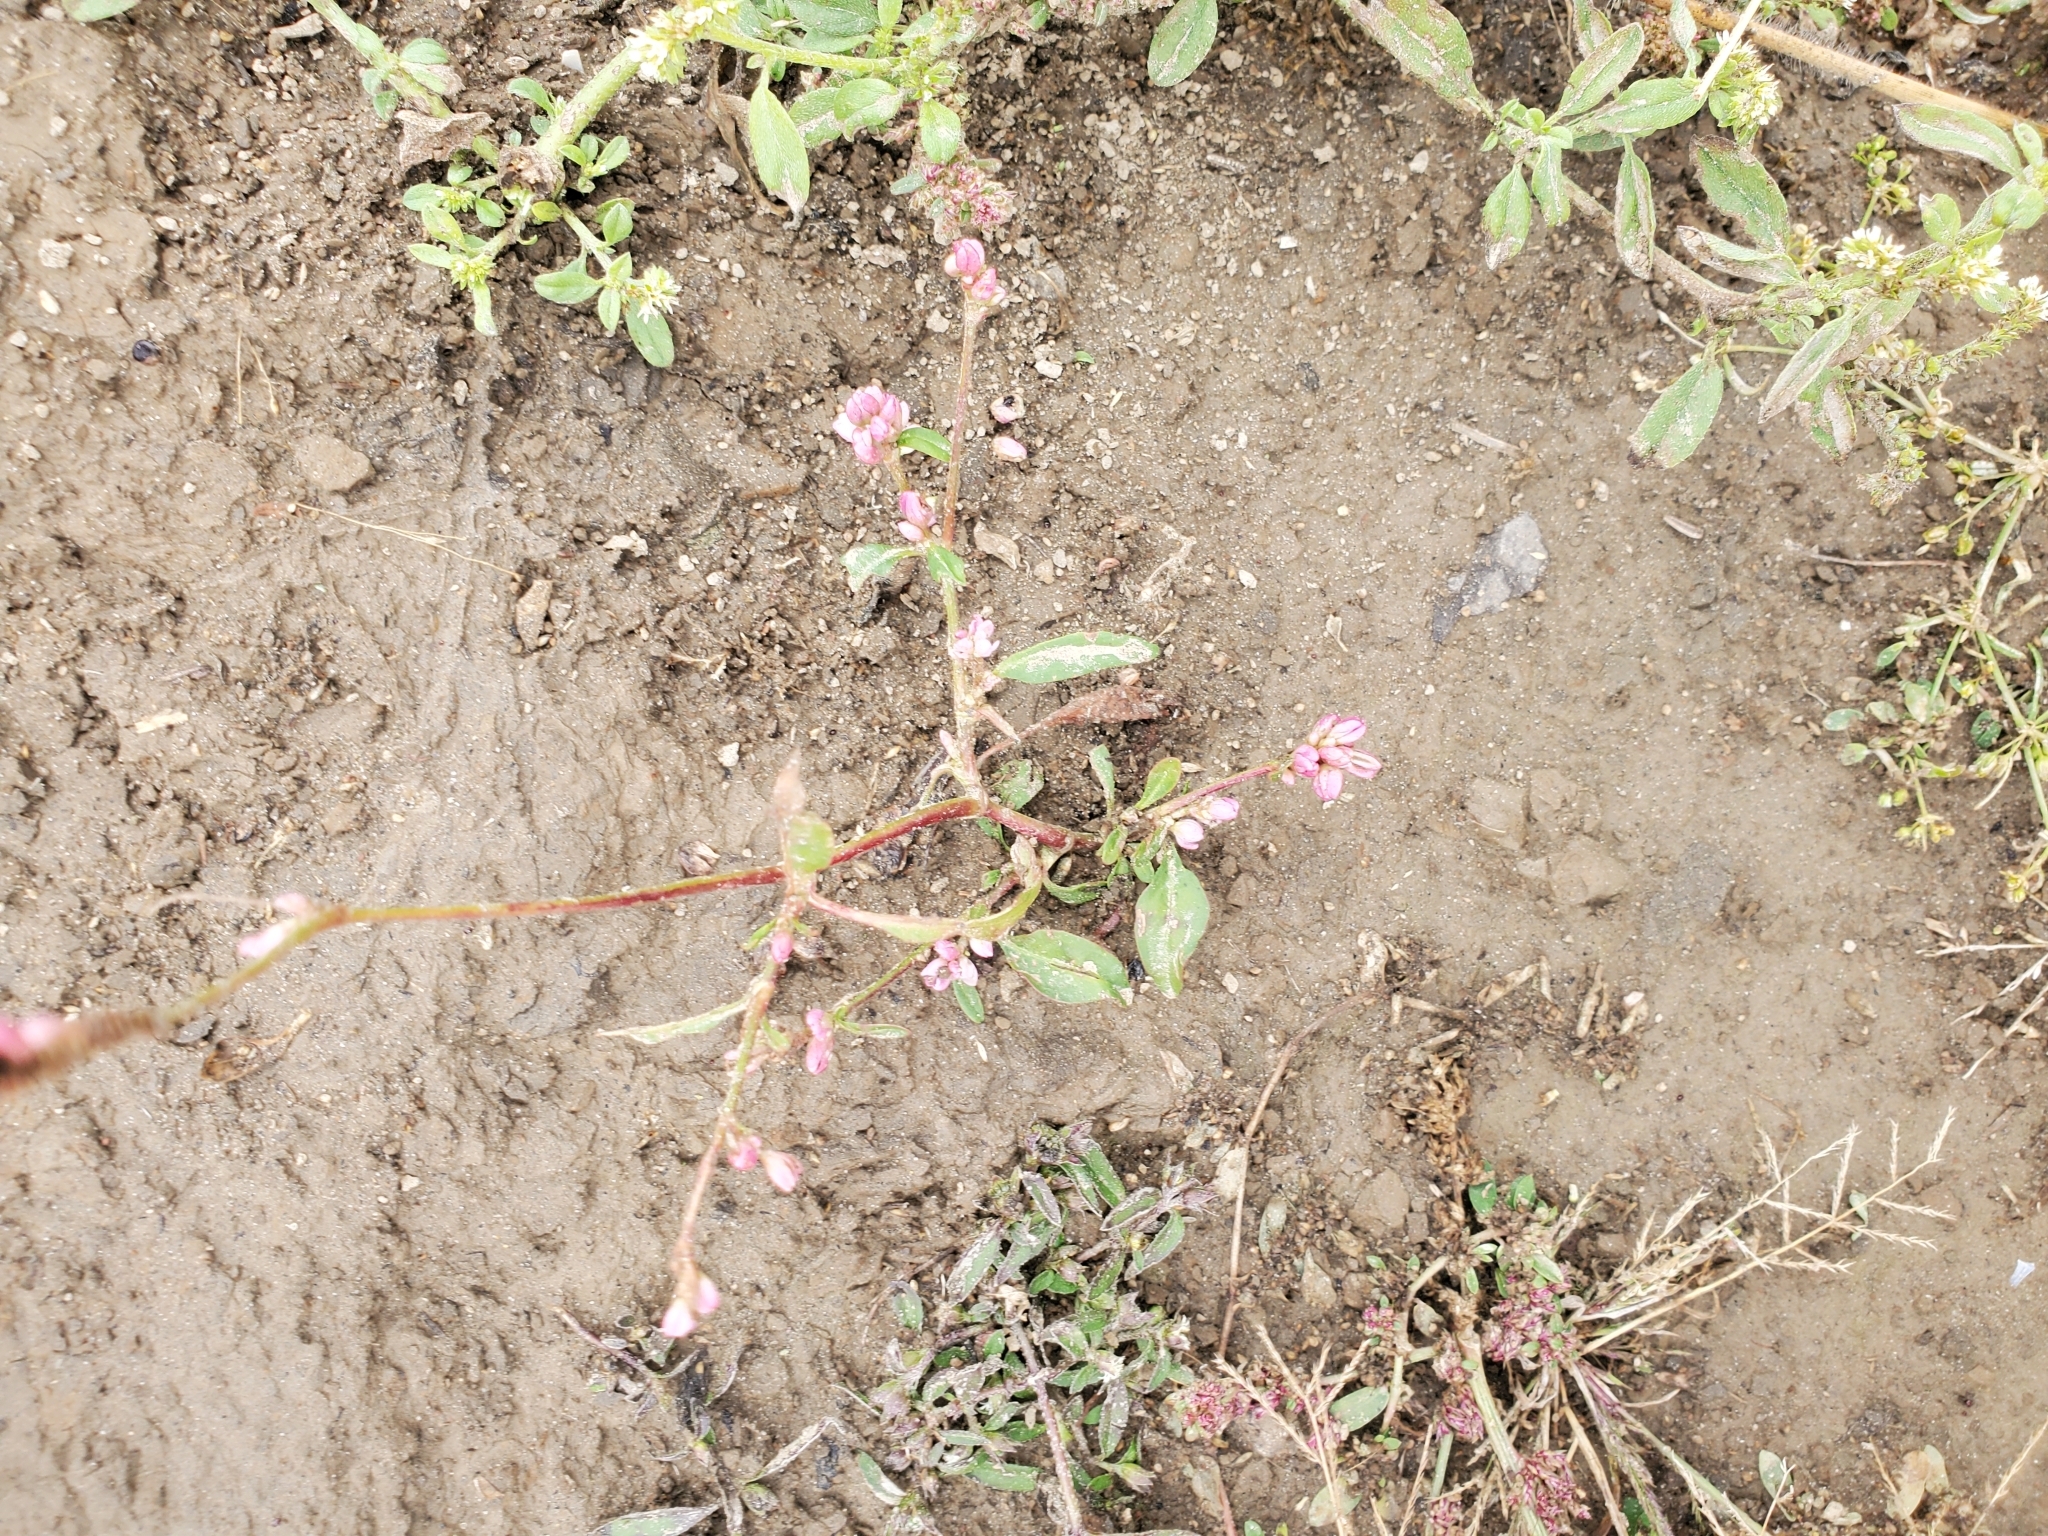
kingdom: Plantae
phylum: Tracheophyta
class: Magnoliopsida
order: Caryophyllales
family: Polygonaceae
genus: Persicaria
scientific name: Persicaria pensylvanica
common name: Pinkweed
